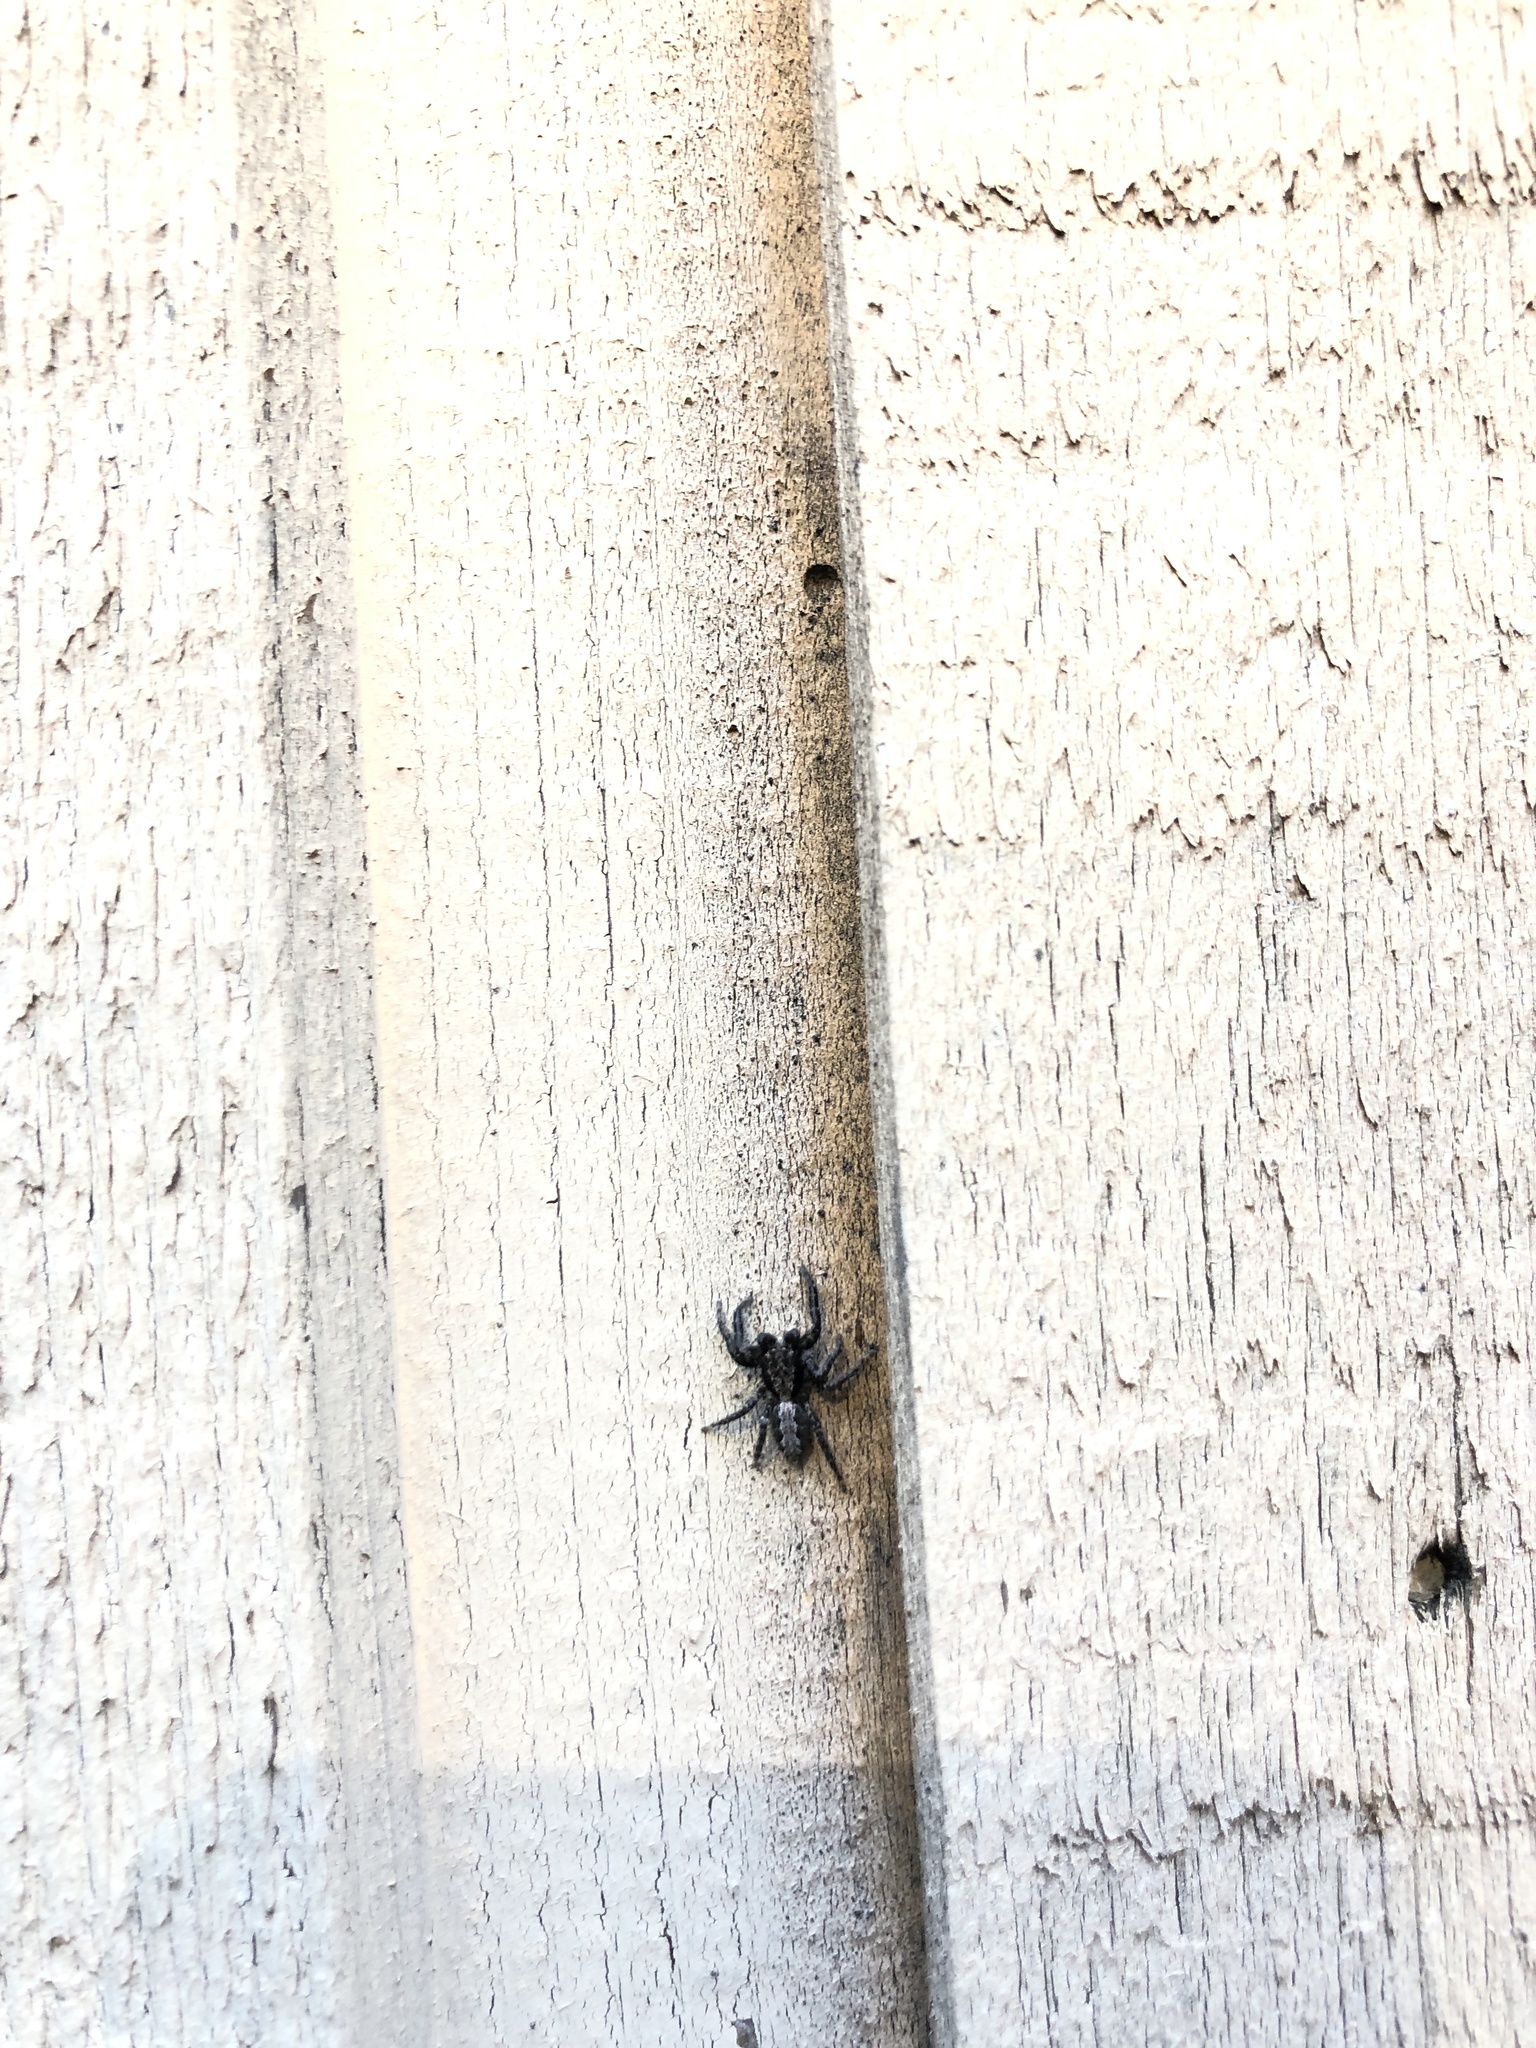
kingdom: Animalia
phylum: Arthropoda
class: Arachnida
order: Araneae
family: Salticidae
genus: Platycryptus
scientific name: Platycryptus californicus
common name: Jumping spiders
